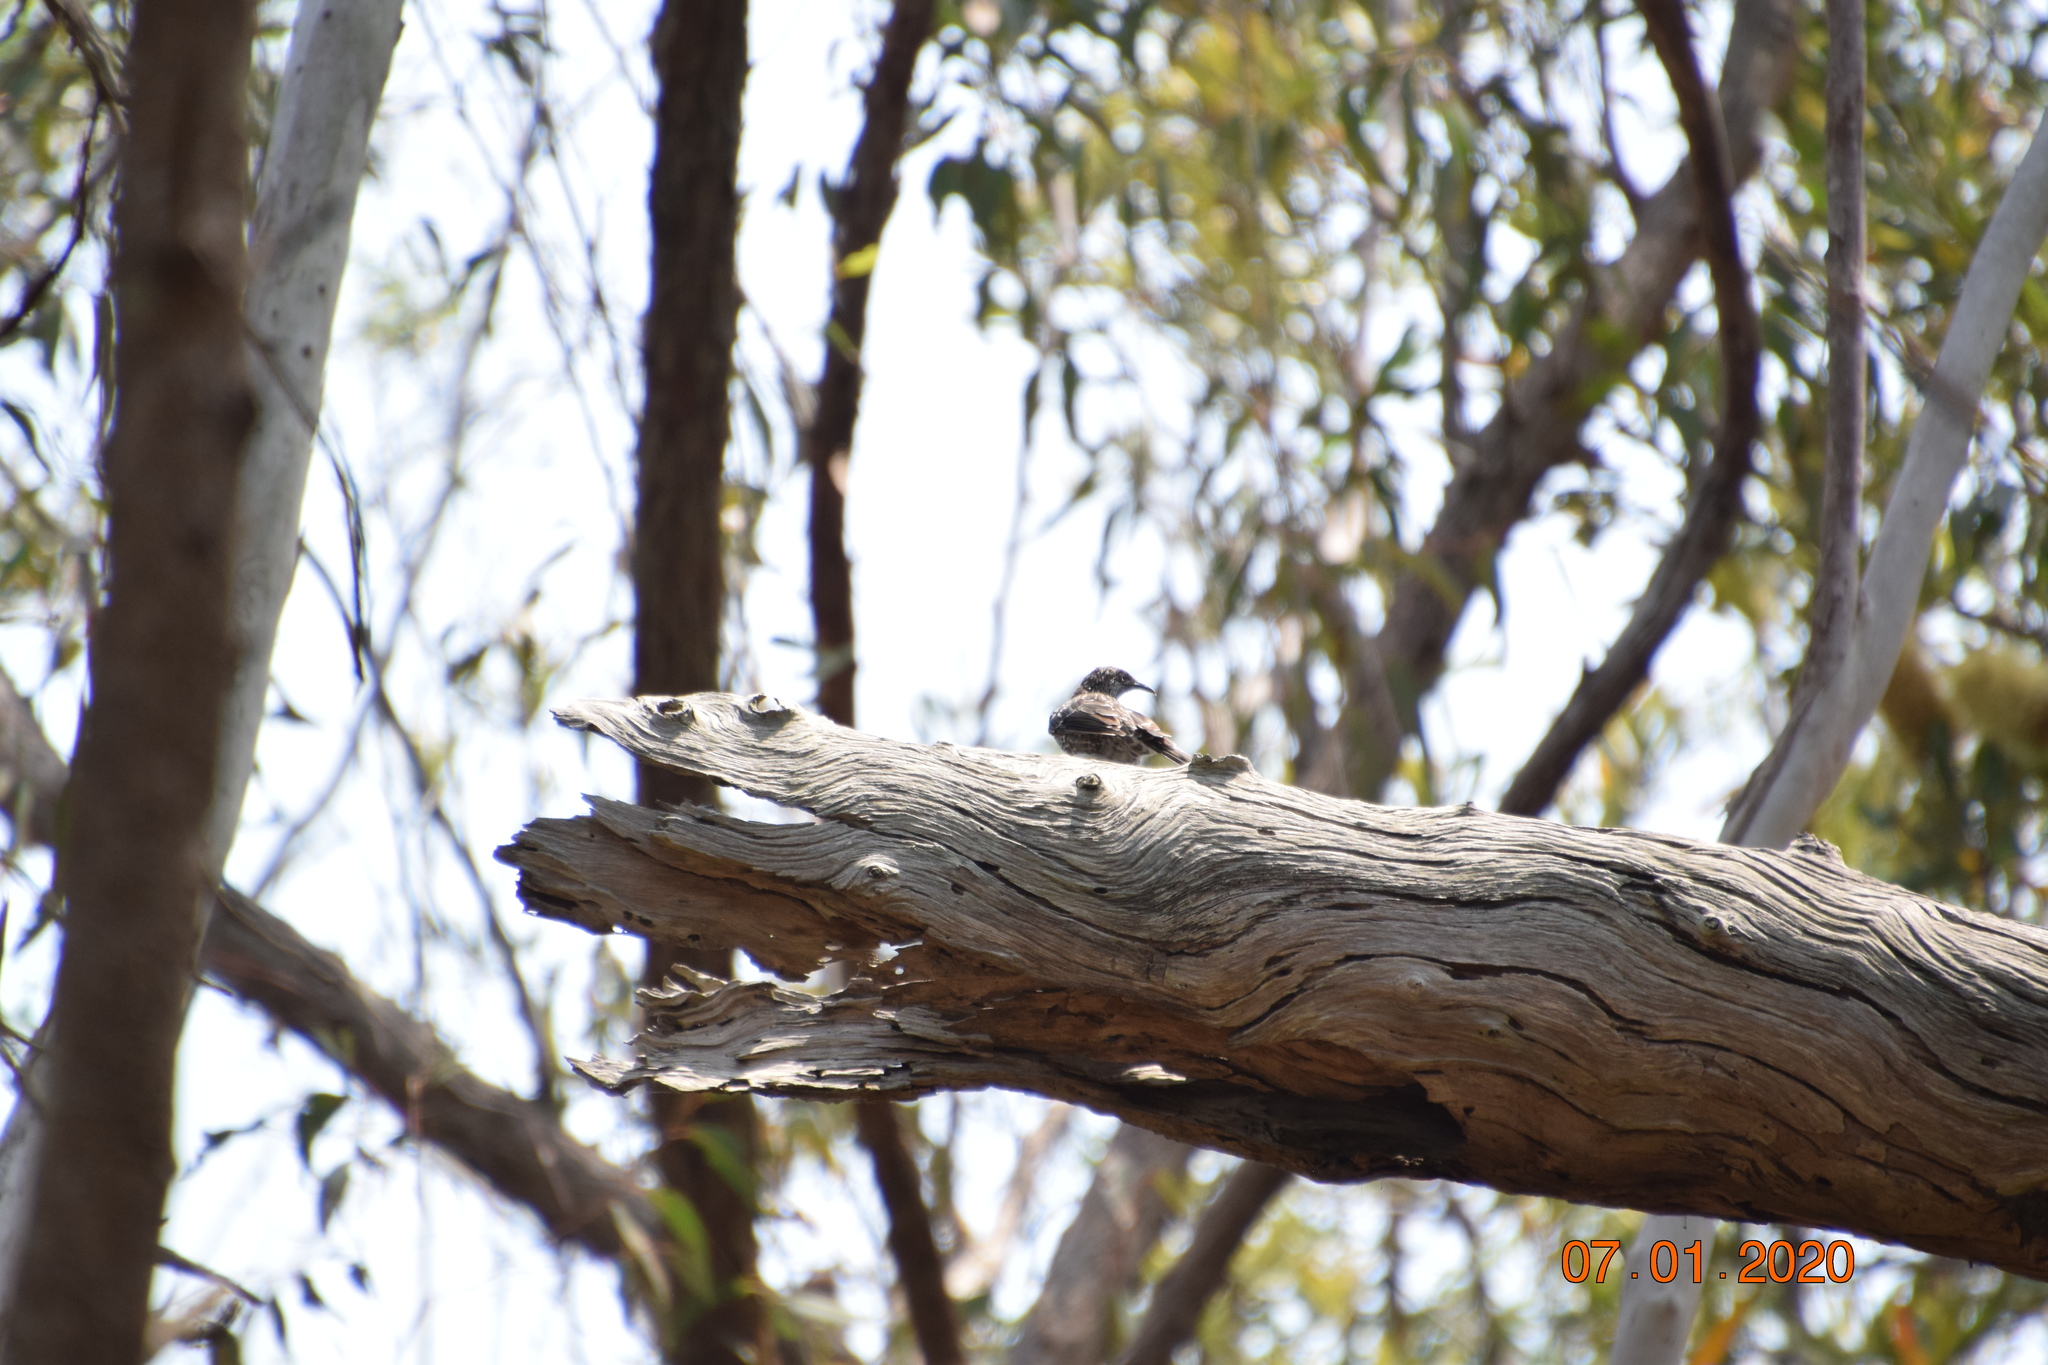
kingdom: Animalia
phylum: Chordata
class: Aves
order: Passeriformes
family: Meliphagidae
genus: Anthochaera
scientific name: Anthochaera chrysoptera
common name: Little wattlebird
